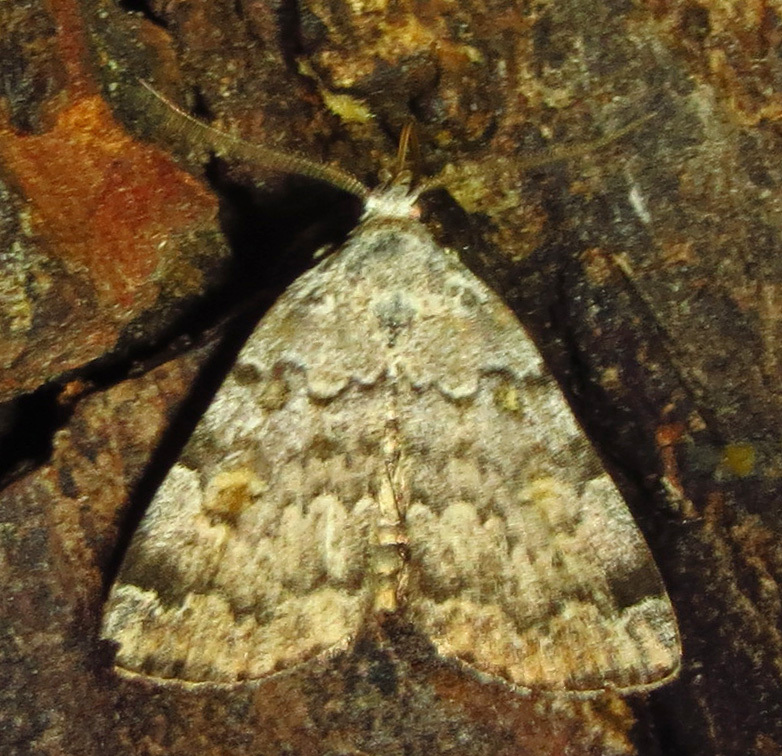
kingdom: Animalia
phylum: Arthropoda
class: Insecta
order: Lepidoptera
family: Erebidae
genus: Idia
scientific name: Idia americalis
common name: American idia moth
